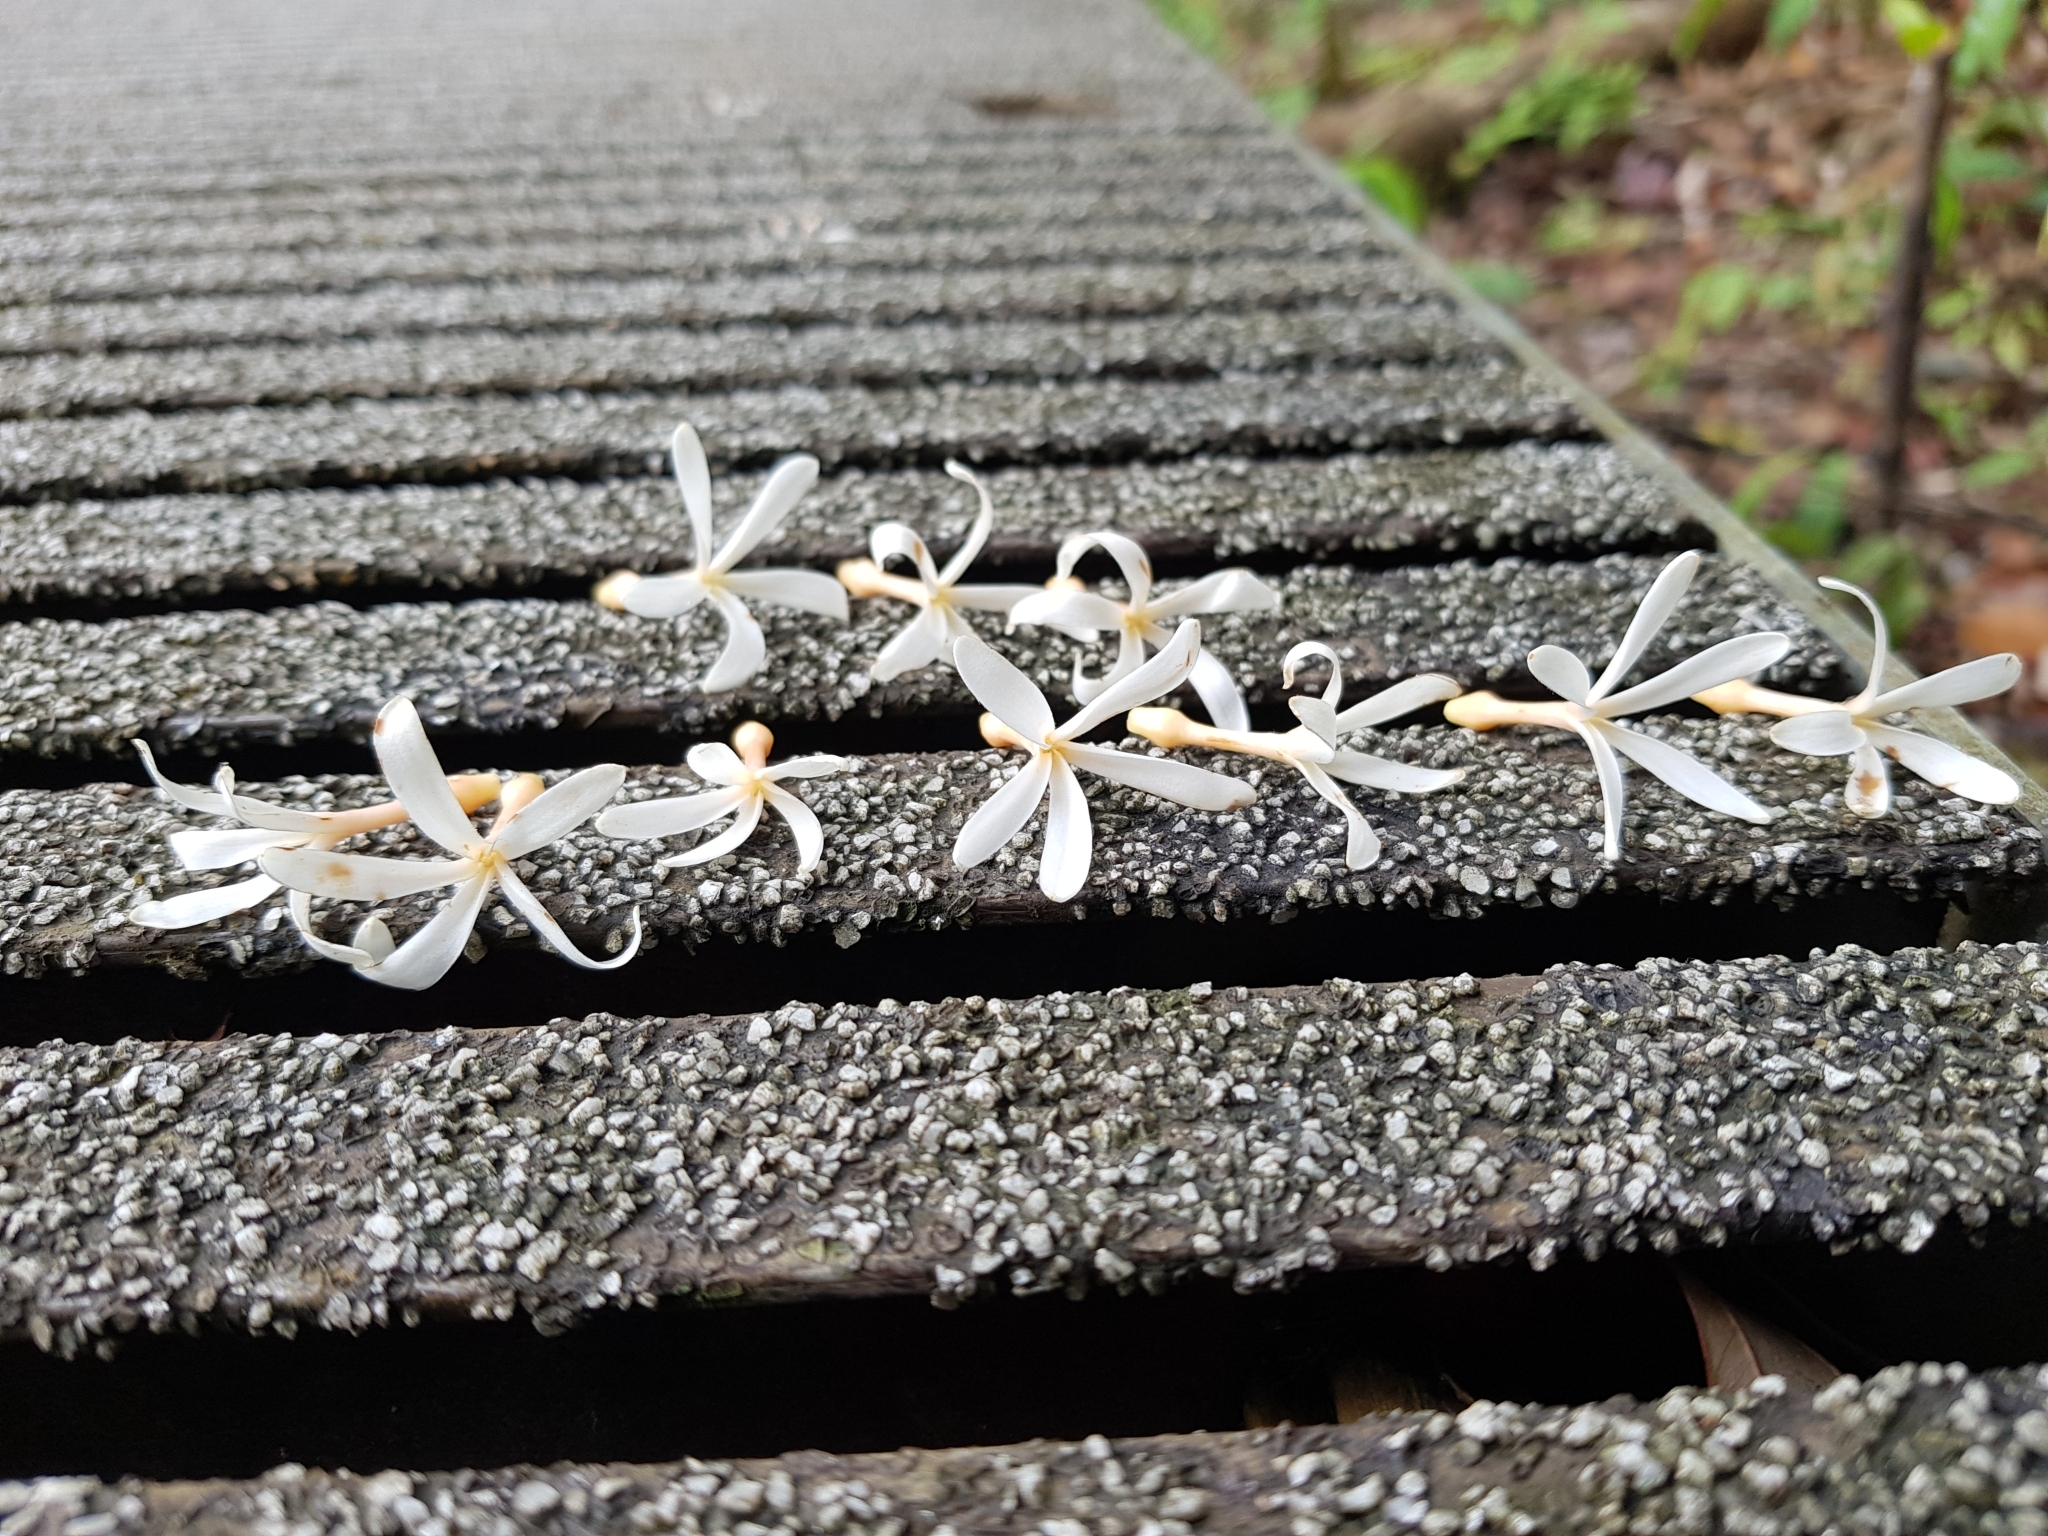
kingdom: Plantae
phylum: Tracheophyta
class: Magnoliopsida
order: Gentianales
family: Apocynaceae
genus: Willughbeia
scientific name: Willughbeia tenuiflora
